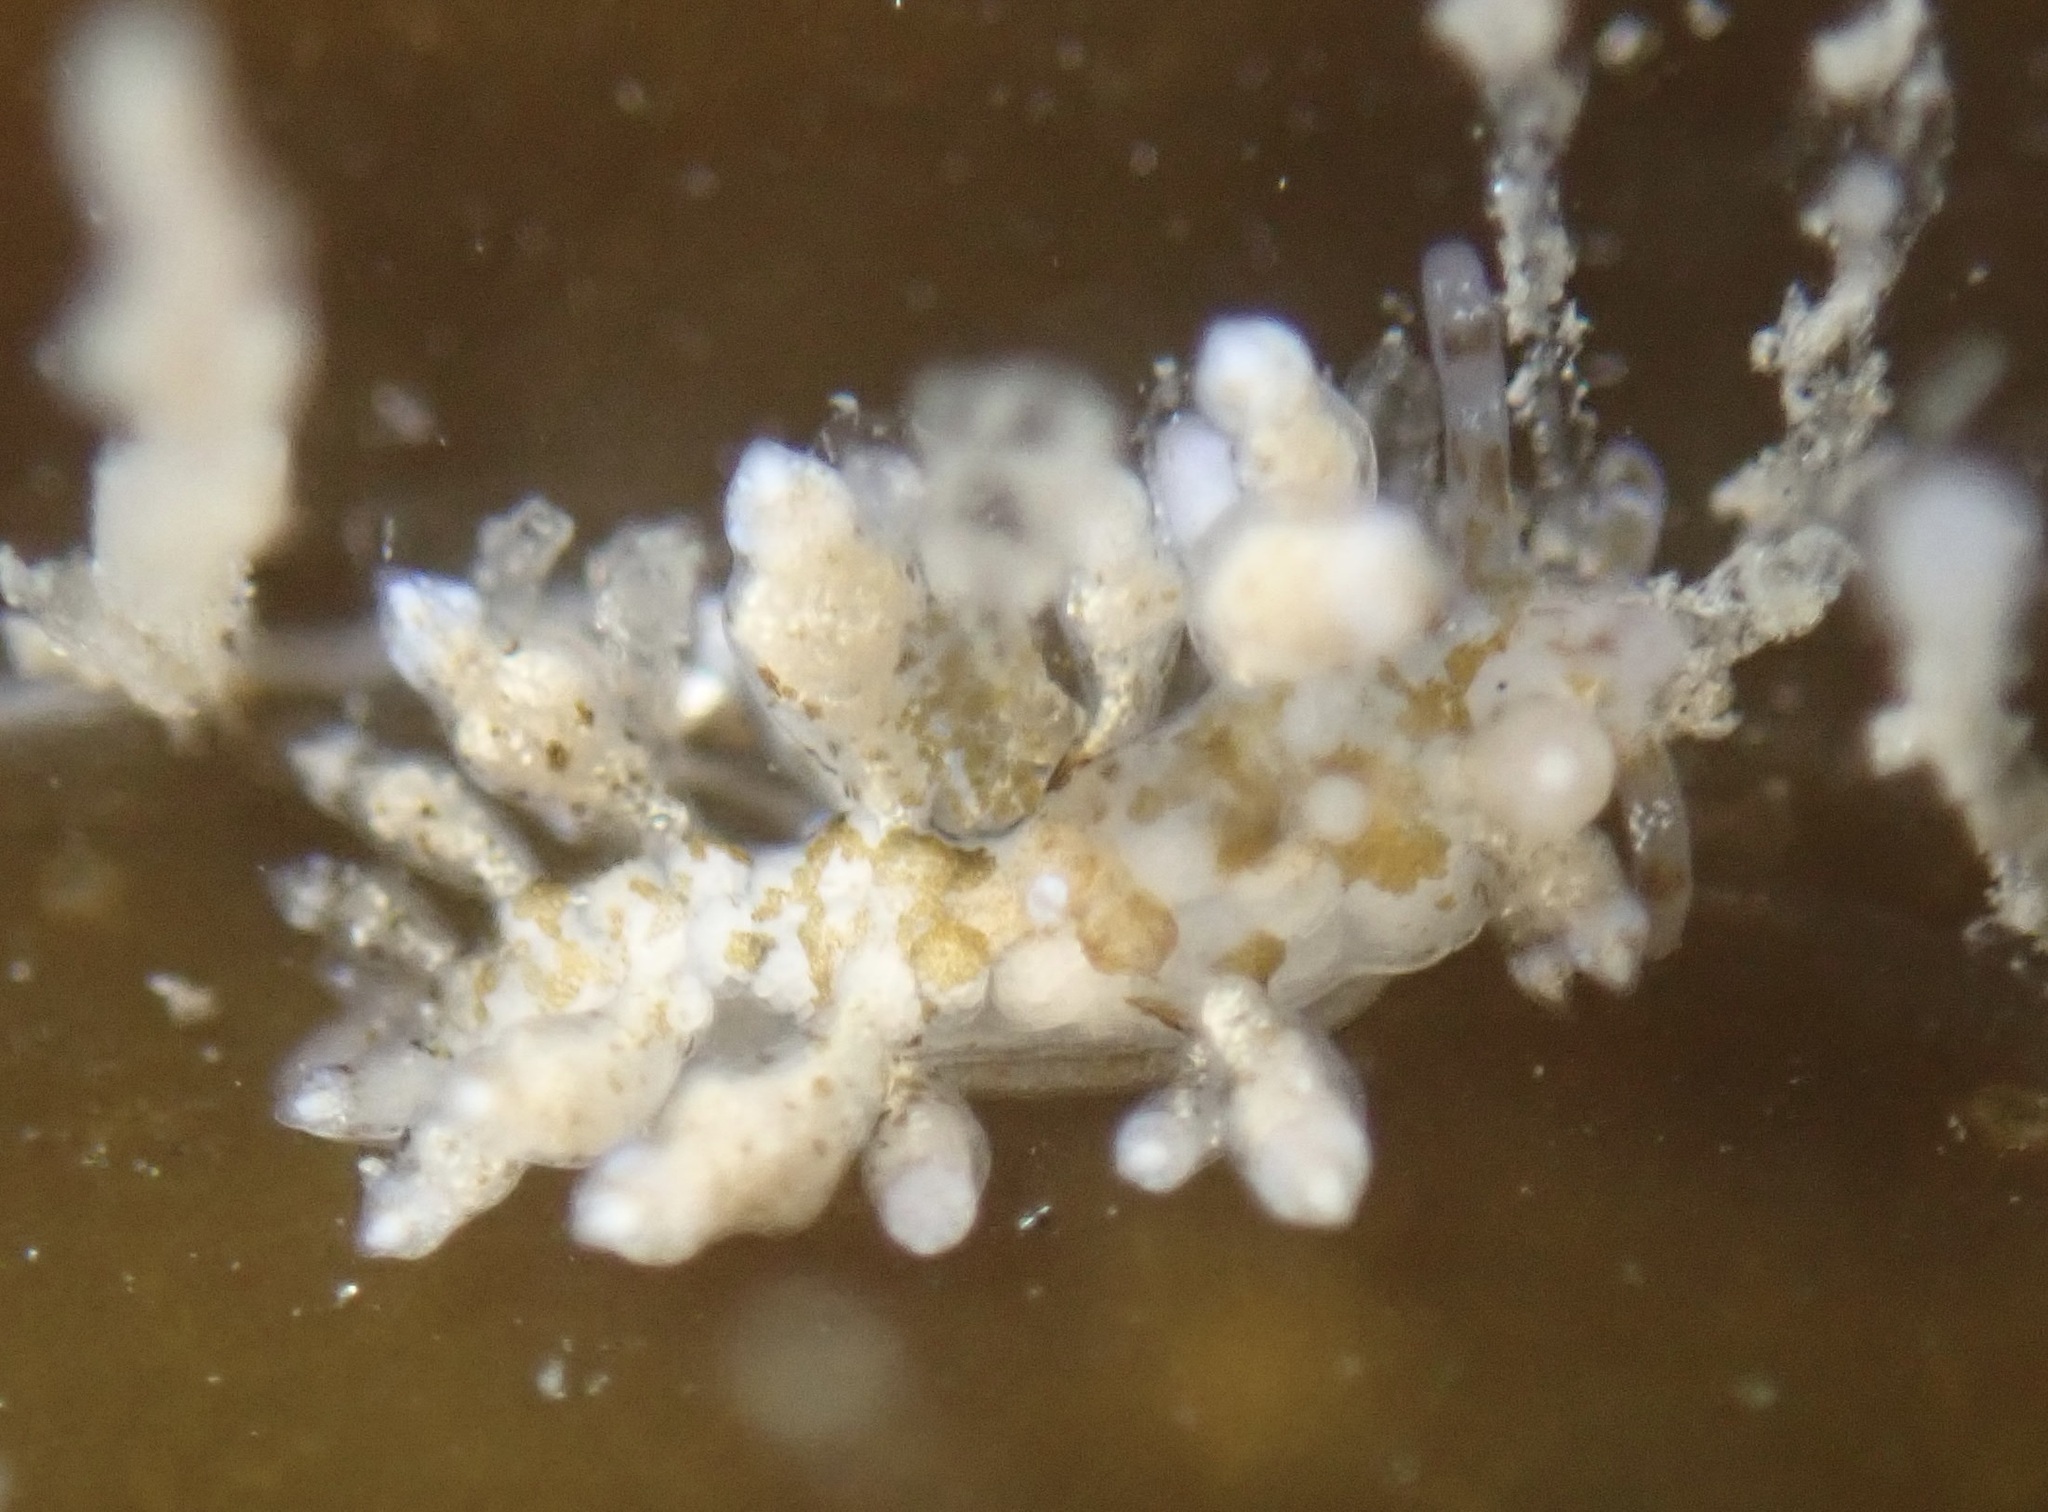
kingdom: Animalia
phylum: Mollusca
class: Gastropoda
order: Nudibranchia
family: Eubranchidae
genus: Eubranchus
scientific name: Eubranchus olivaceus
